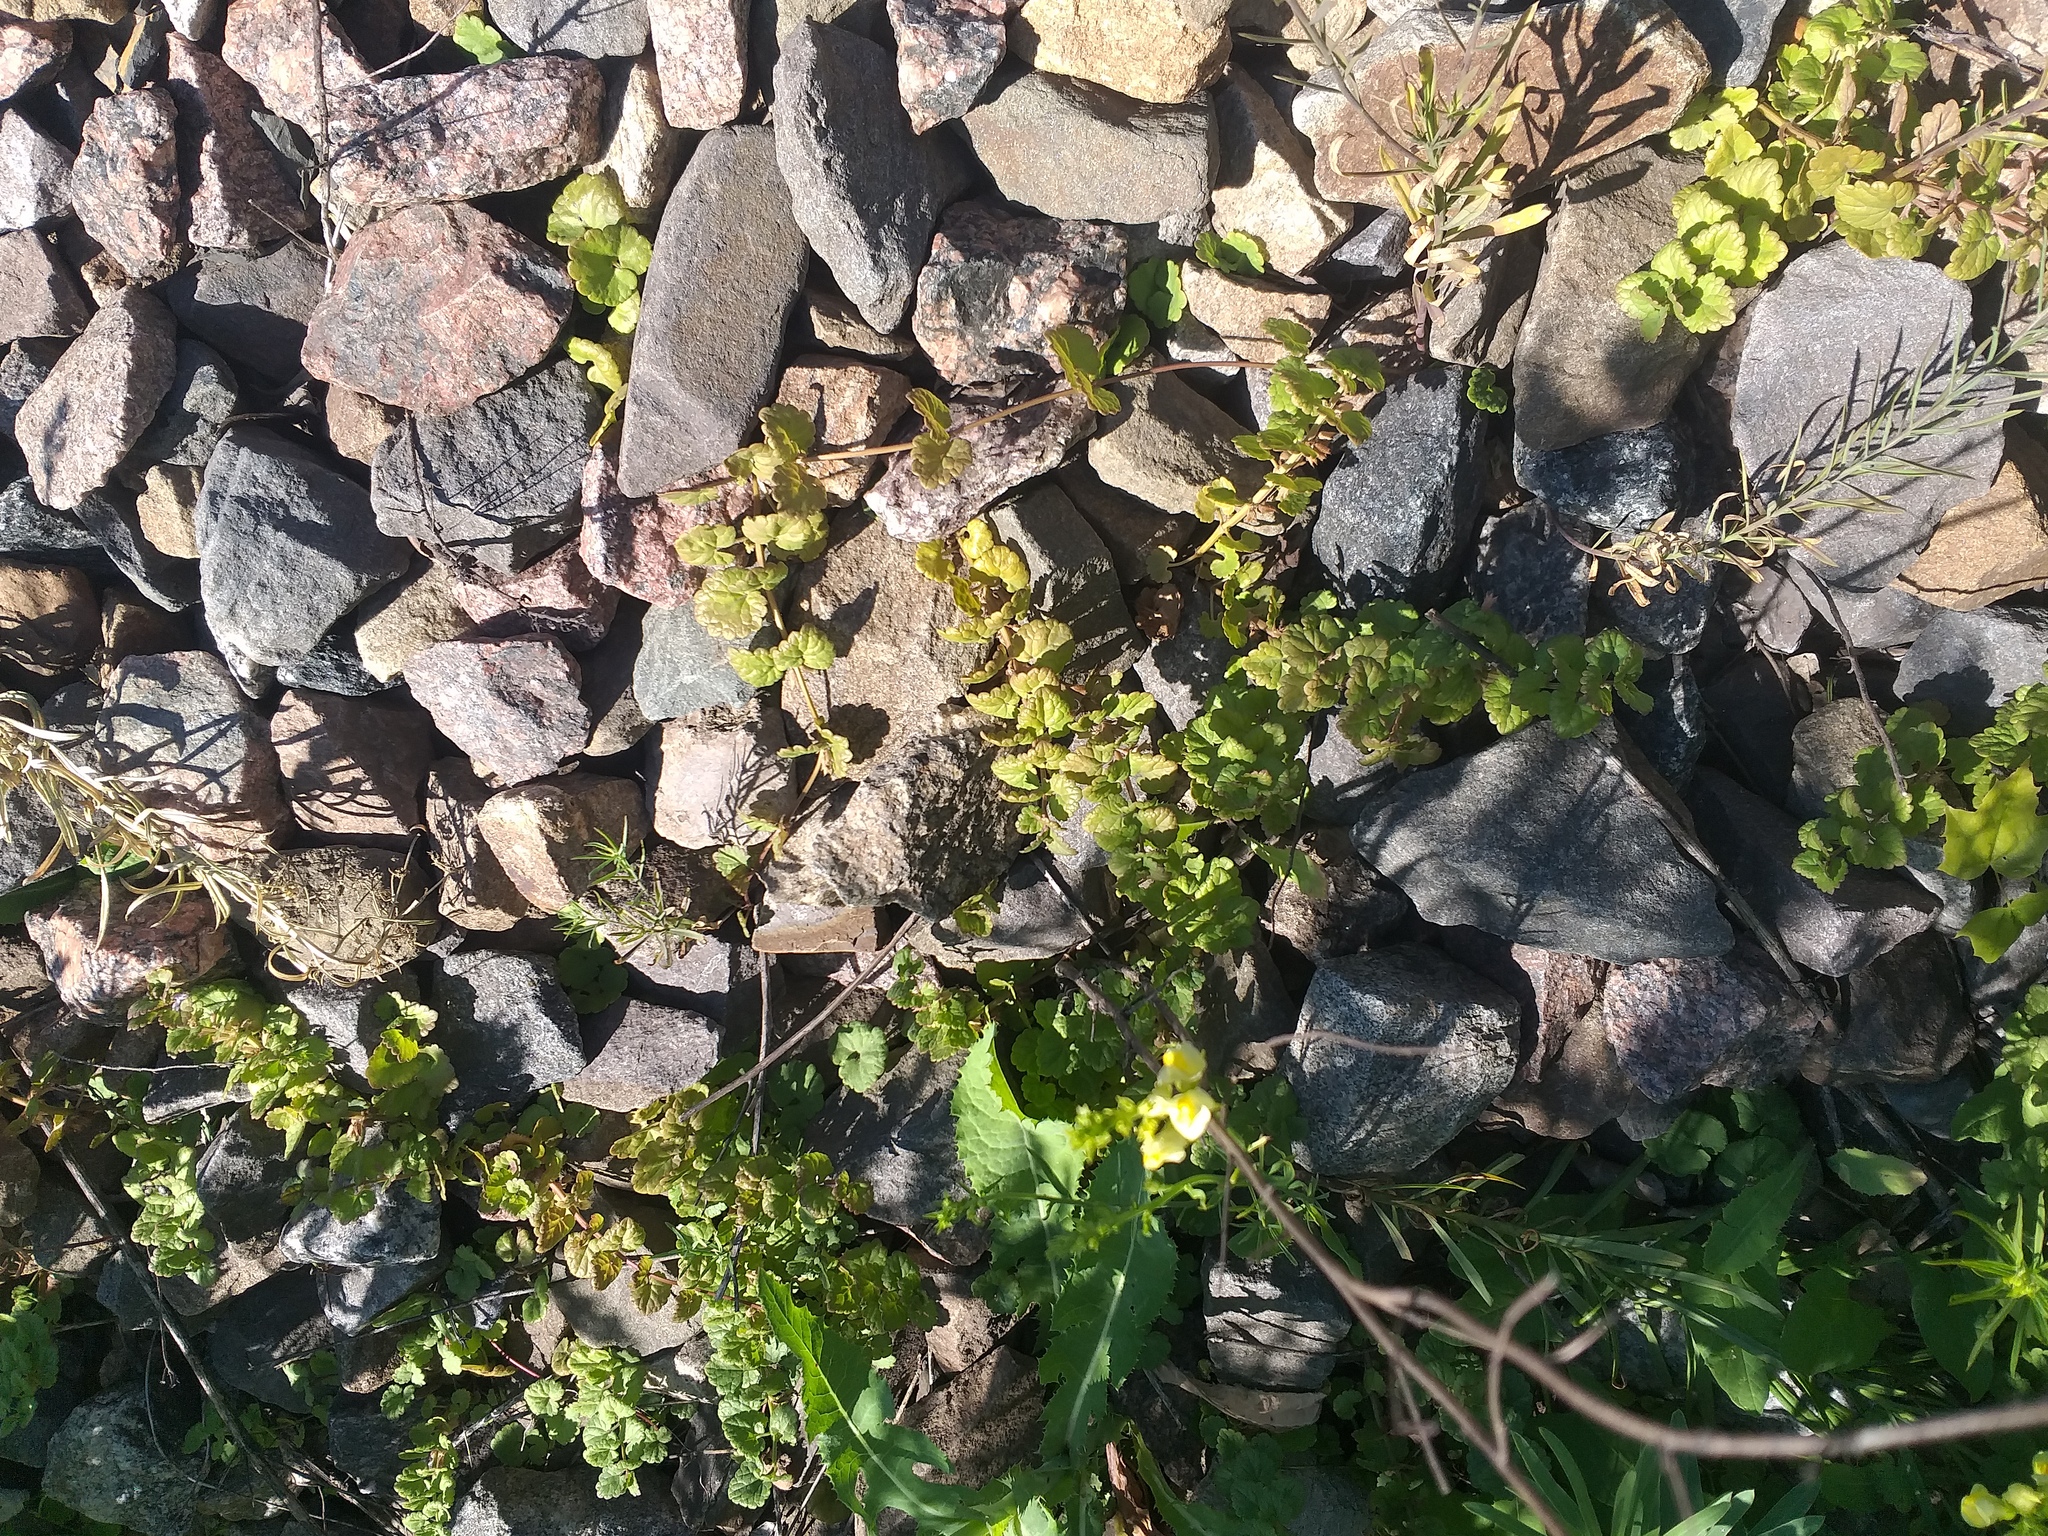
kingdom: Plantae
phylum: Tracheophyta
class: Magnoliopsida
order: Lamiales
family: Lamiaceae
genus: Glechoma
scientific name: Glechoma hederacea
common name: Ground ivy
